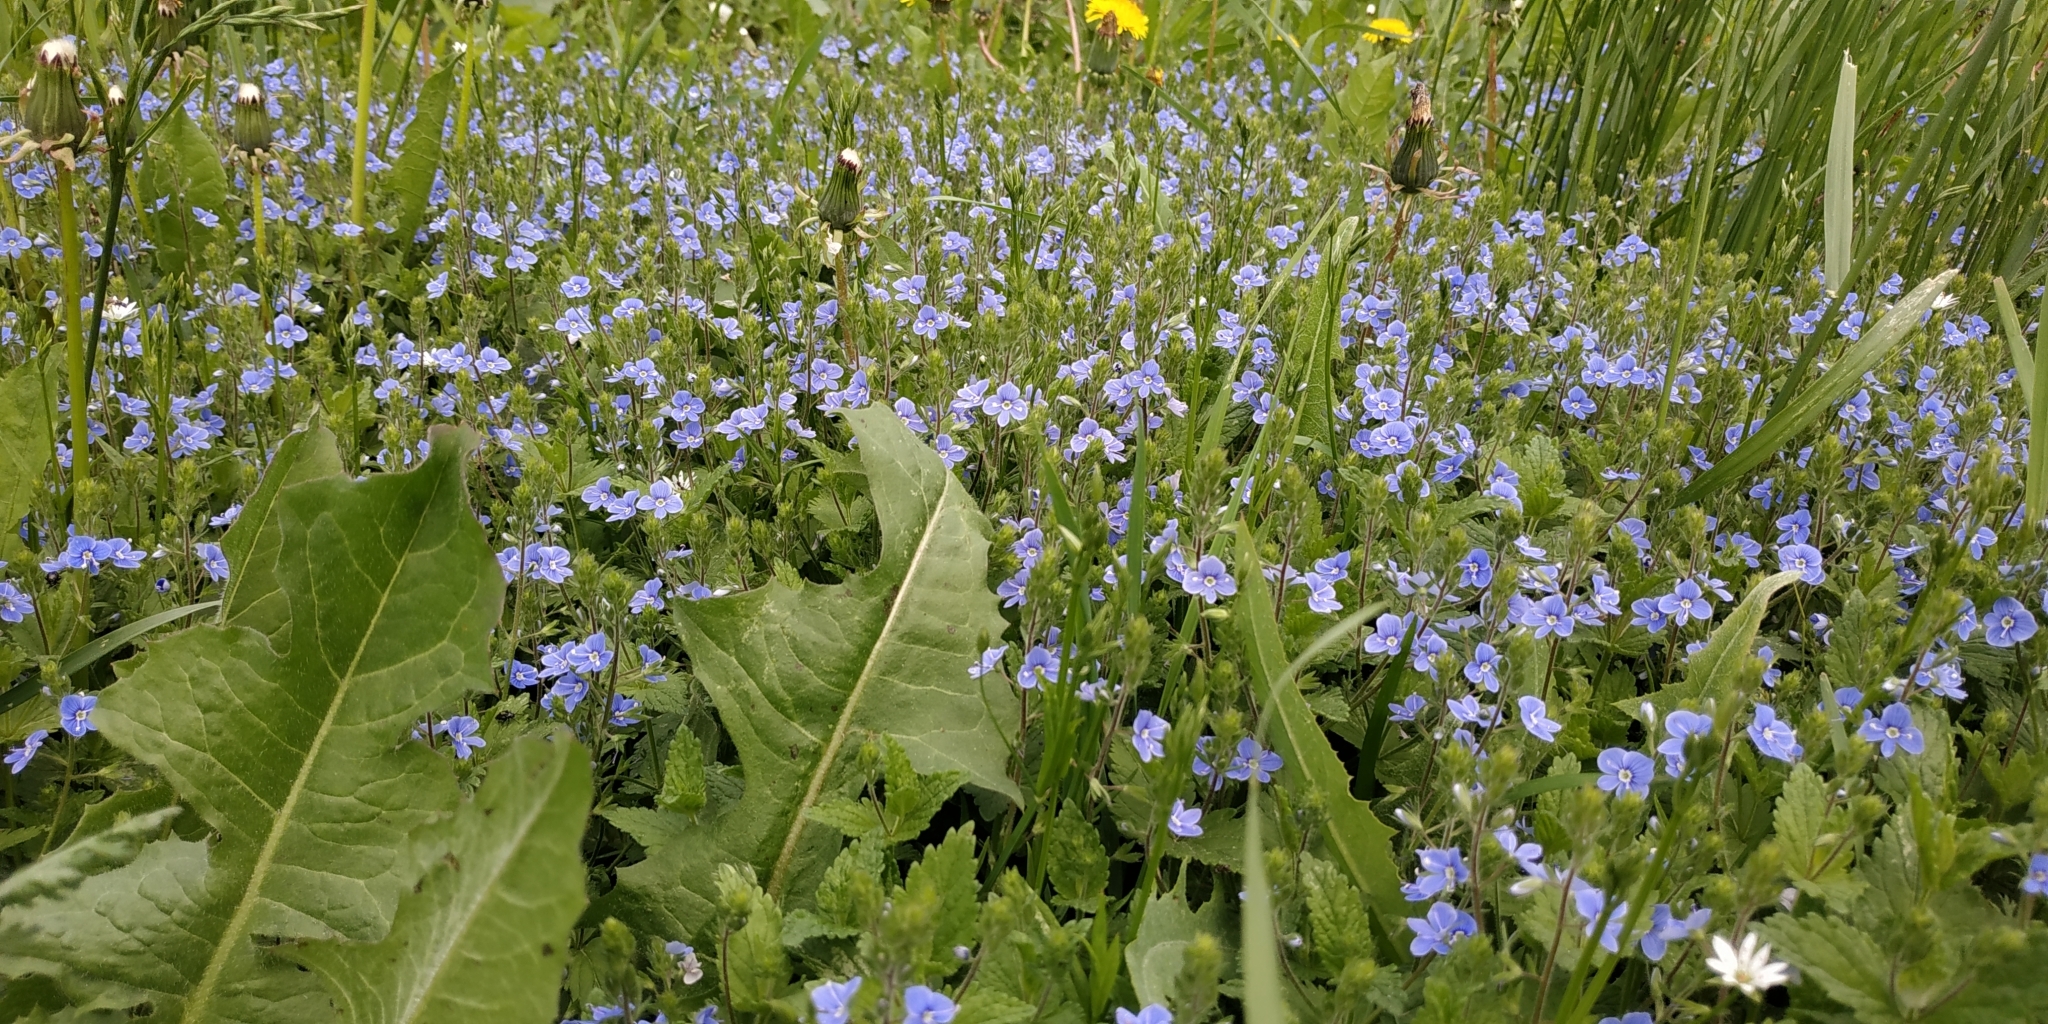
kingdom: Plantae
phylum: Tracheophyta
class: Magnoliopsida
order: Lamiales
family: Plantaginaceae
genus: Veronica
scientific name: Veronica chamaedrys
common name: Germander speedwell
